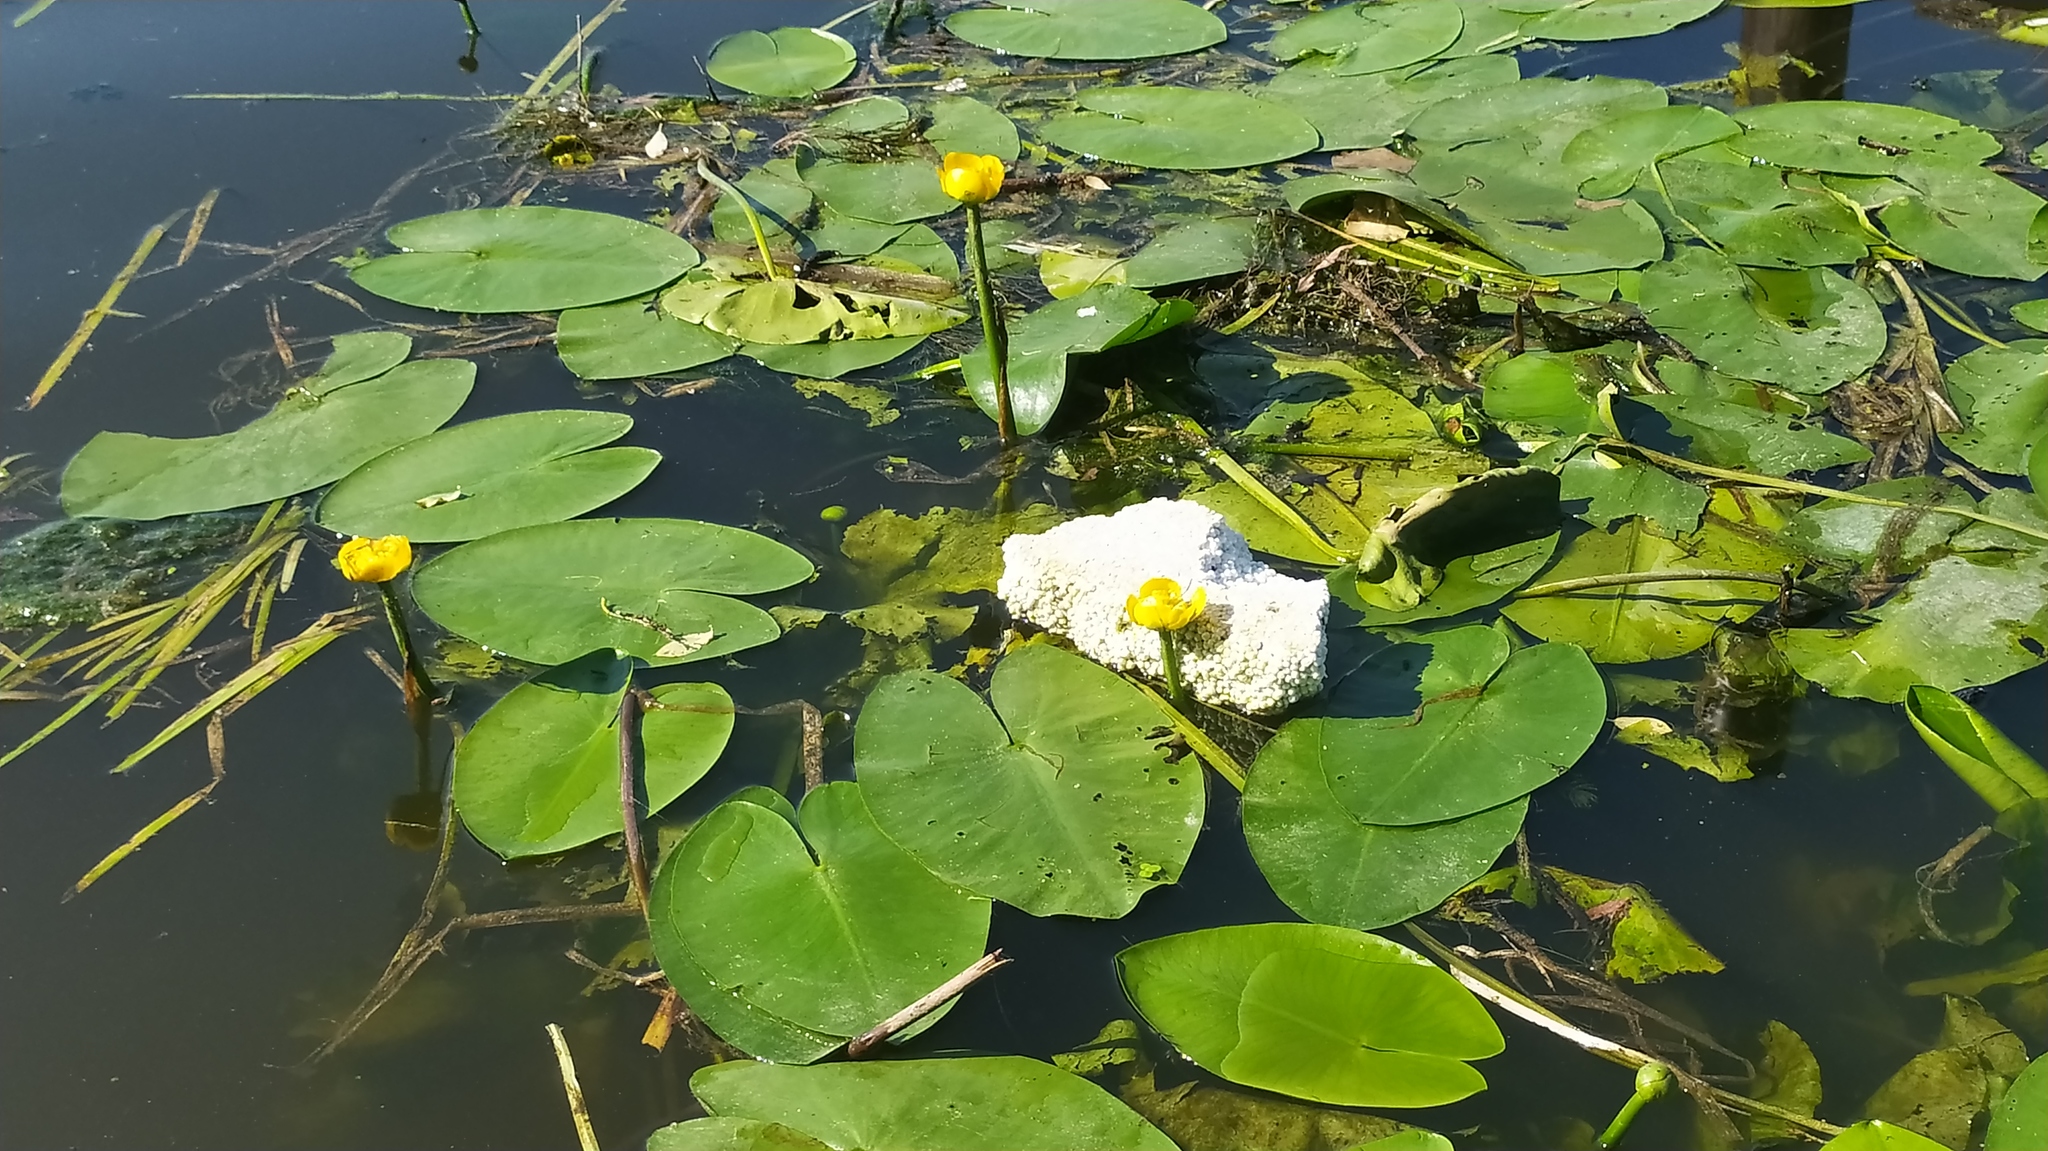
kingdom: Plantae
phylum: Tracheophyta
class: Magnoliopsida
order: Nymphaeales
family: Nymphaeaceae
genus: Nuphar
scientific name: Nuphar lutea
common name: Yellow water-lily
